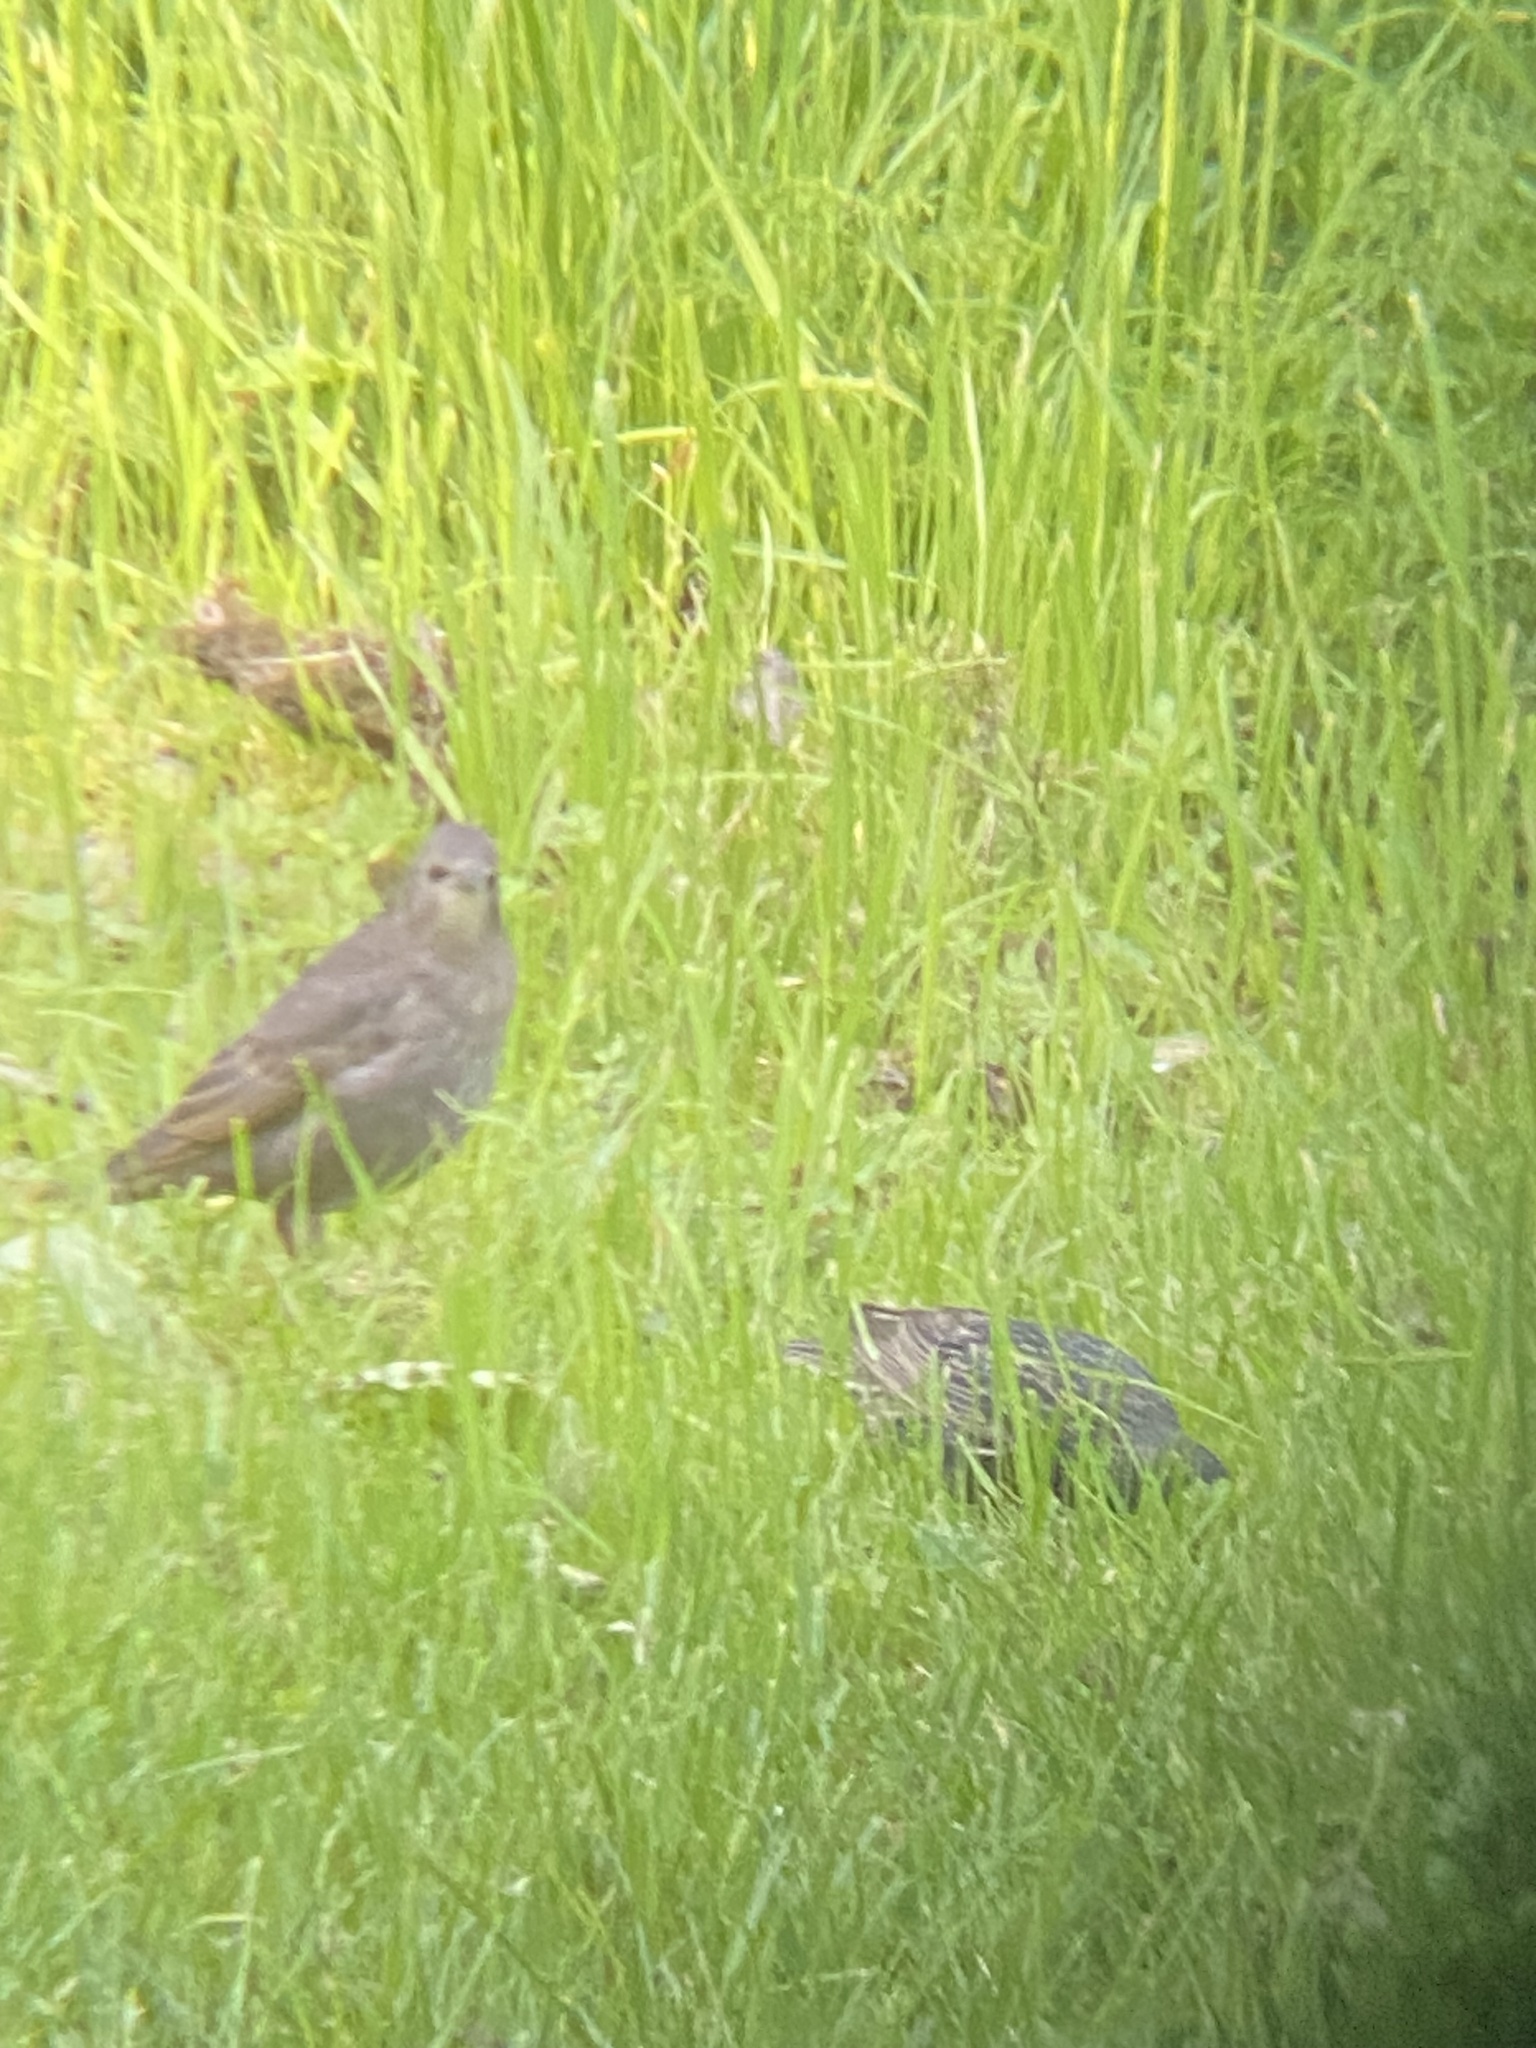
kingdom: Animalia
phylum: Chordata
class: Aves
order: Passeriformes
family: Sturnidae
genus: Sturnus
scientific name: Sturnus vulgaris
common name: Common starling
